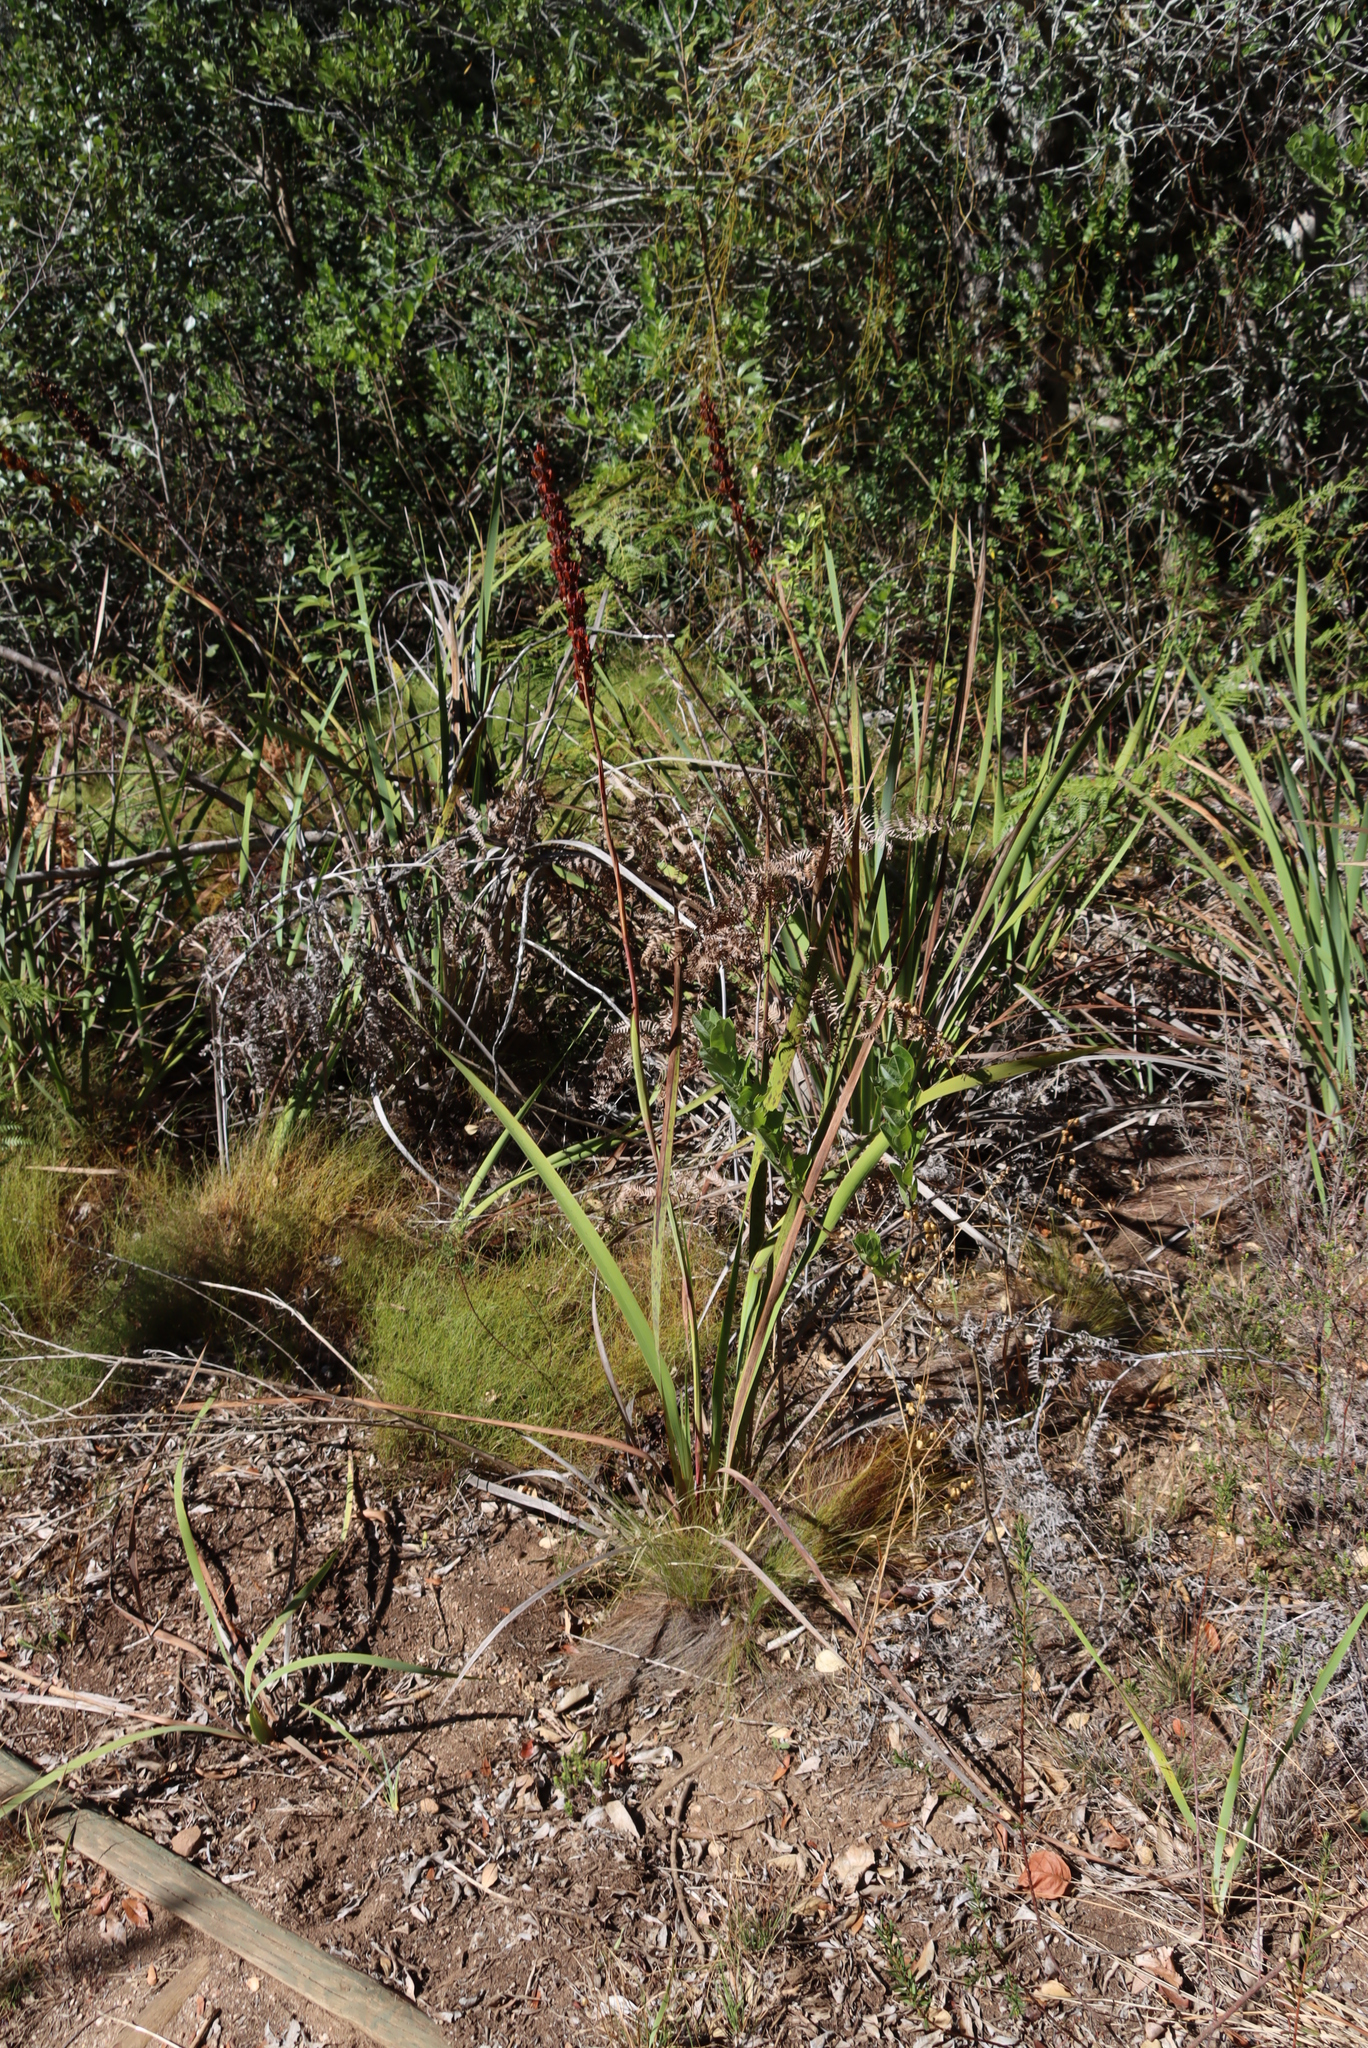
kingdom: Plantae
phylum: Tracheophyta
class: Liliopsida
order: Asparagales
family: Iridaceae
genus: Aristea
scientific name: Aristea capitata
